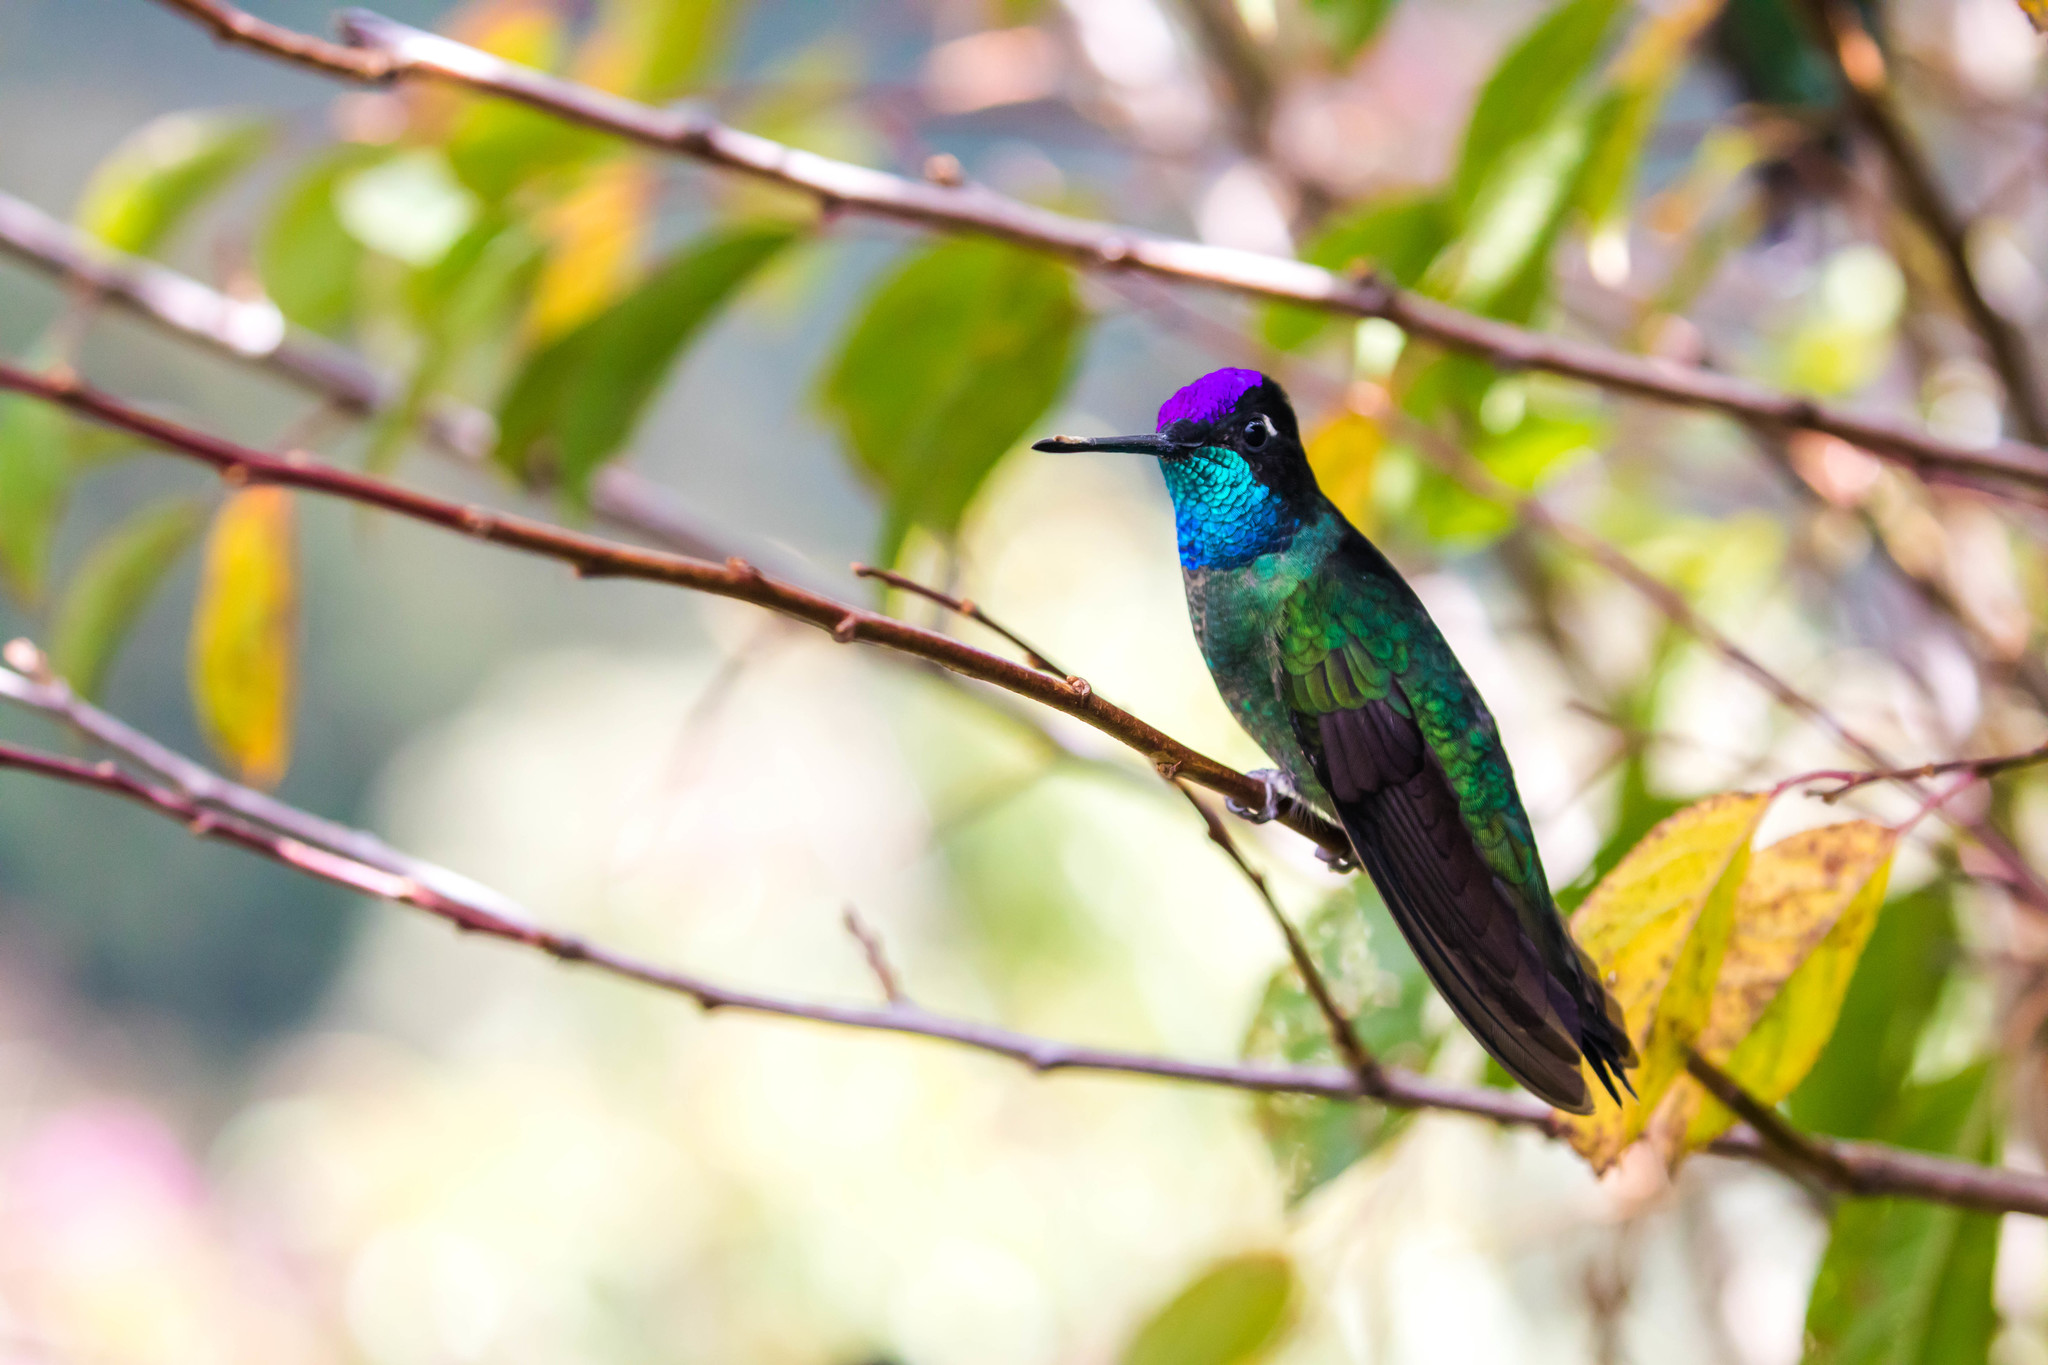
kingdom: Animalia
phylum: Chordata
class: Aves
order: Apodiformes
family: Trochilidae
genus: Eugenes
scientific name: Eugenes spectabilis
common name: Talamanca hummingbird
